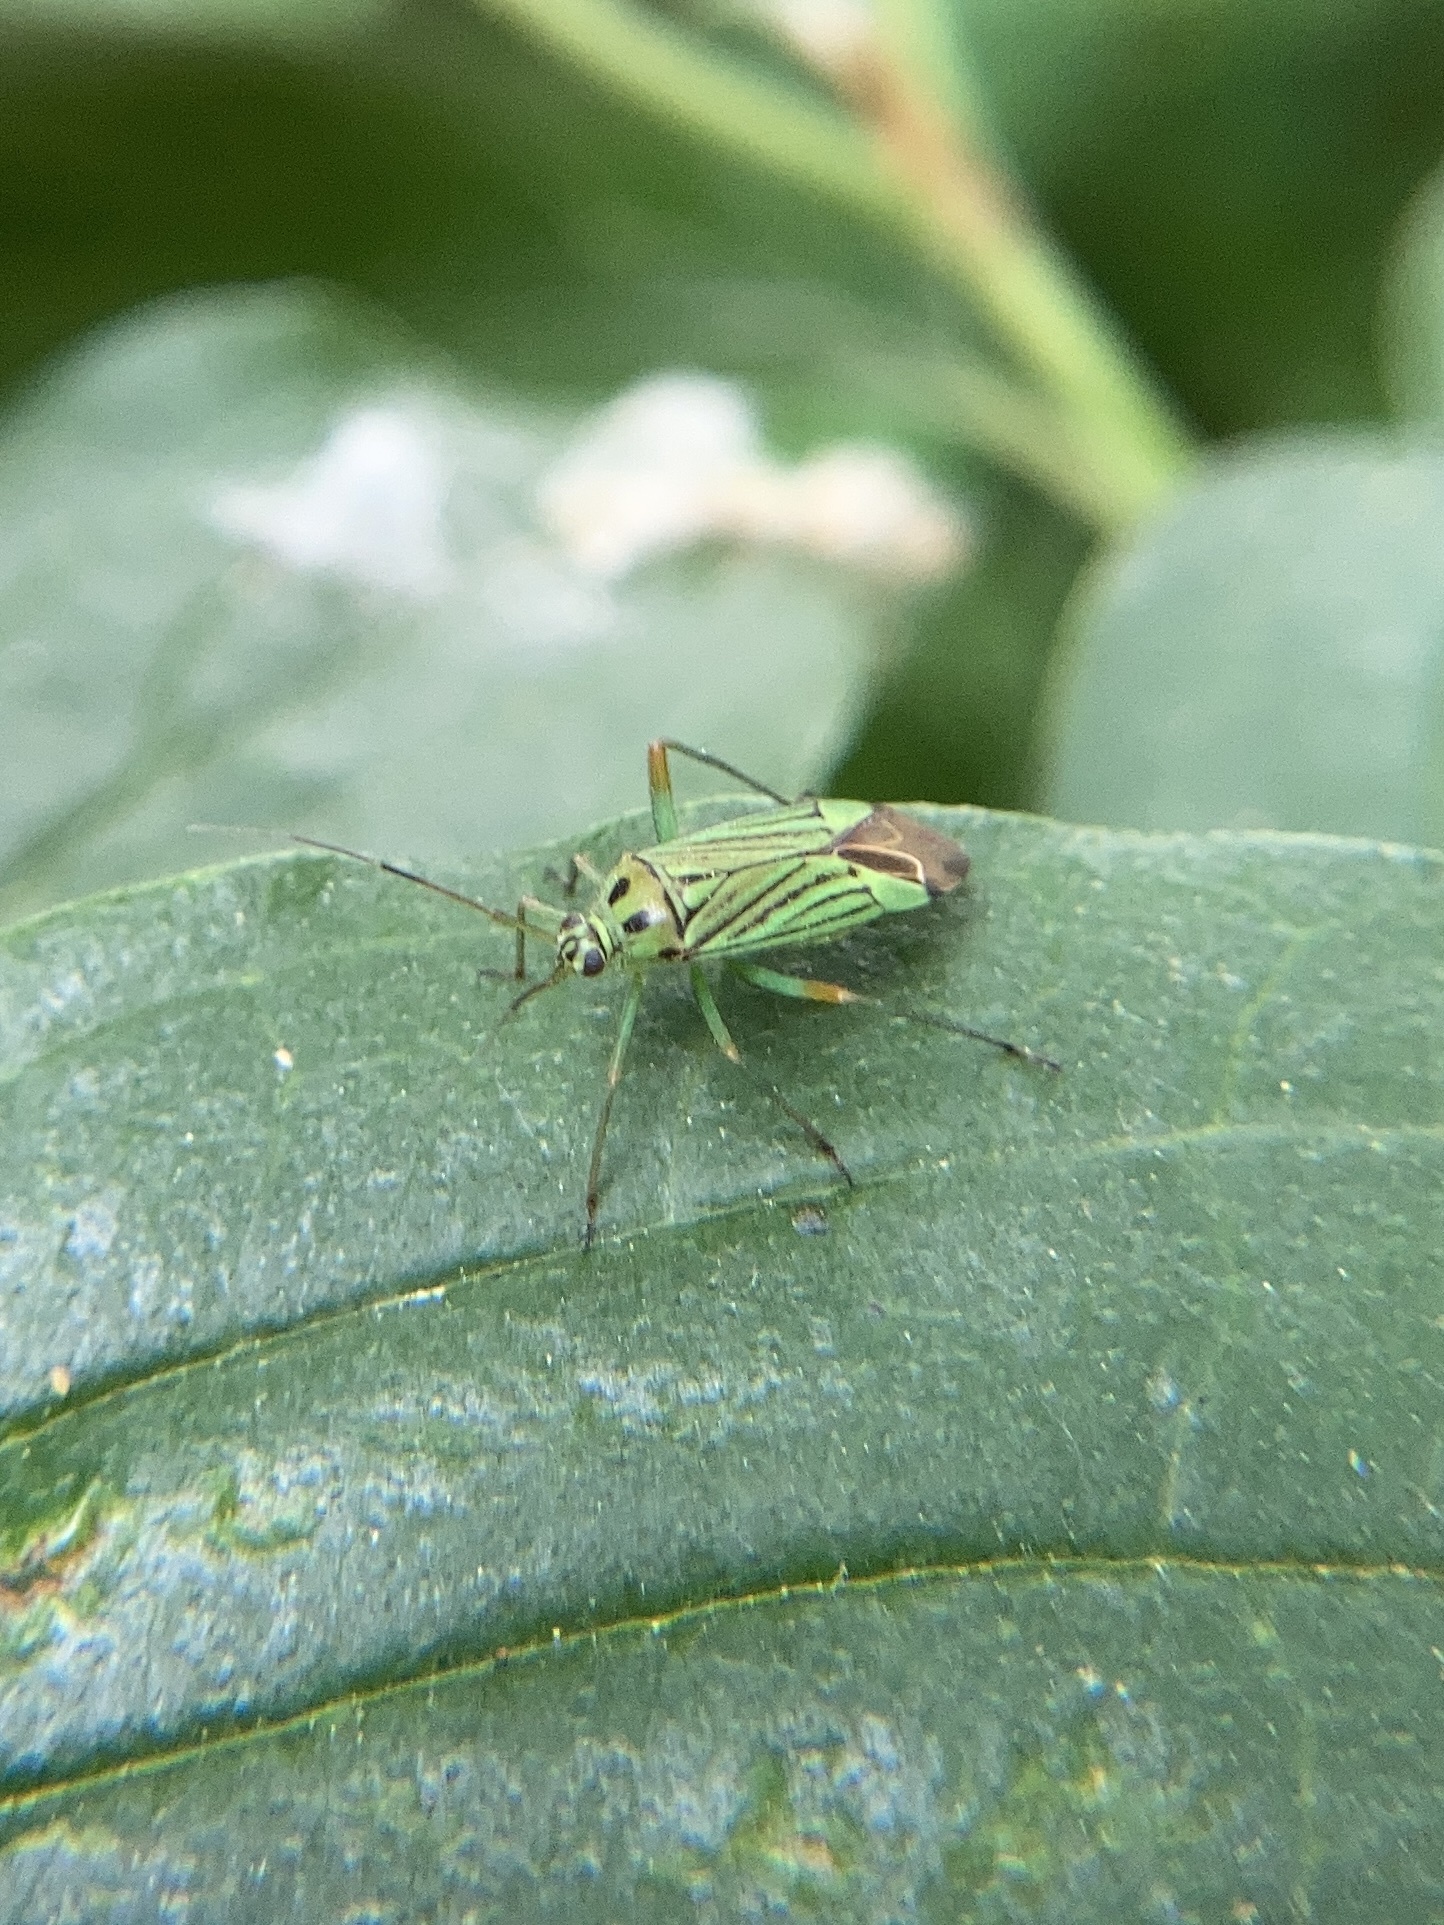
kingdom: Animalia
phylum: Arthropoda
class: Insecta
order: Hemiptera
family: Miridae
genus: Mermitelocerus
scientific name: Mermitelocerus schmidtii
